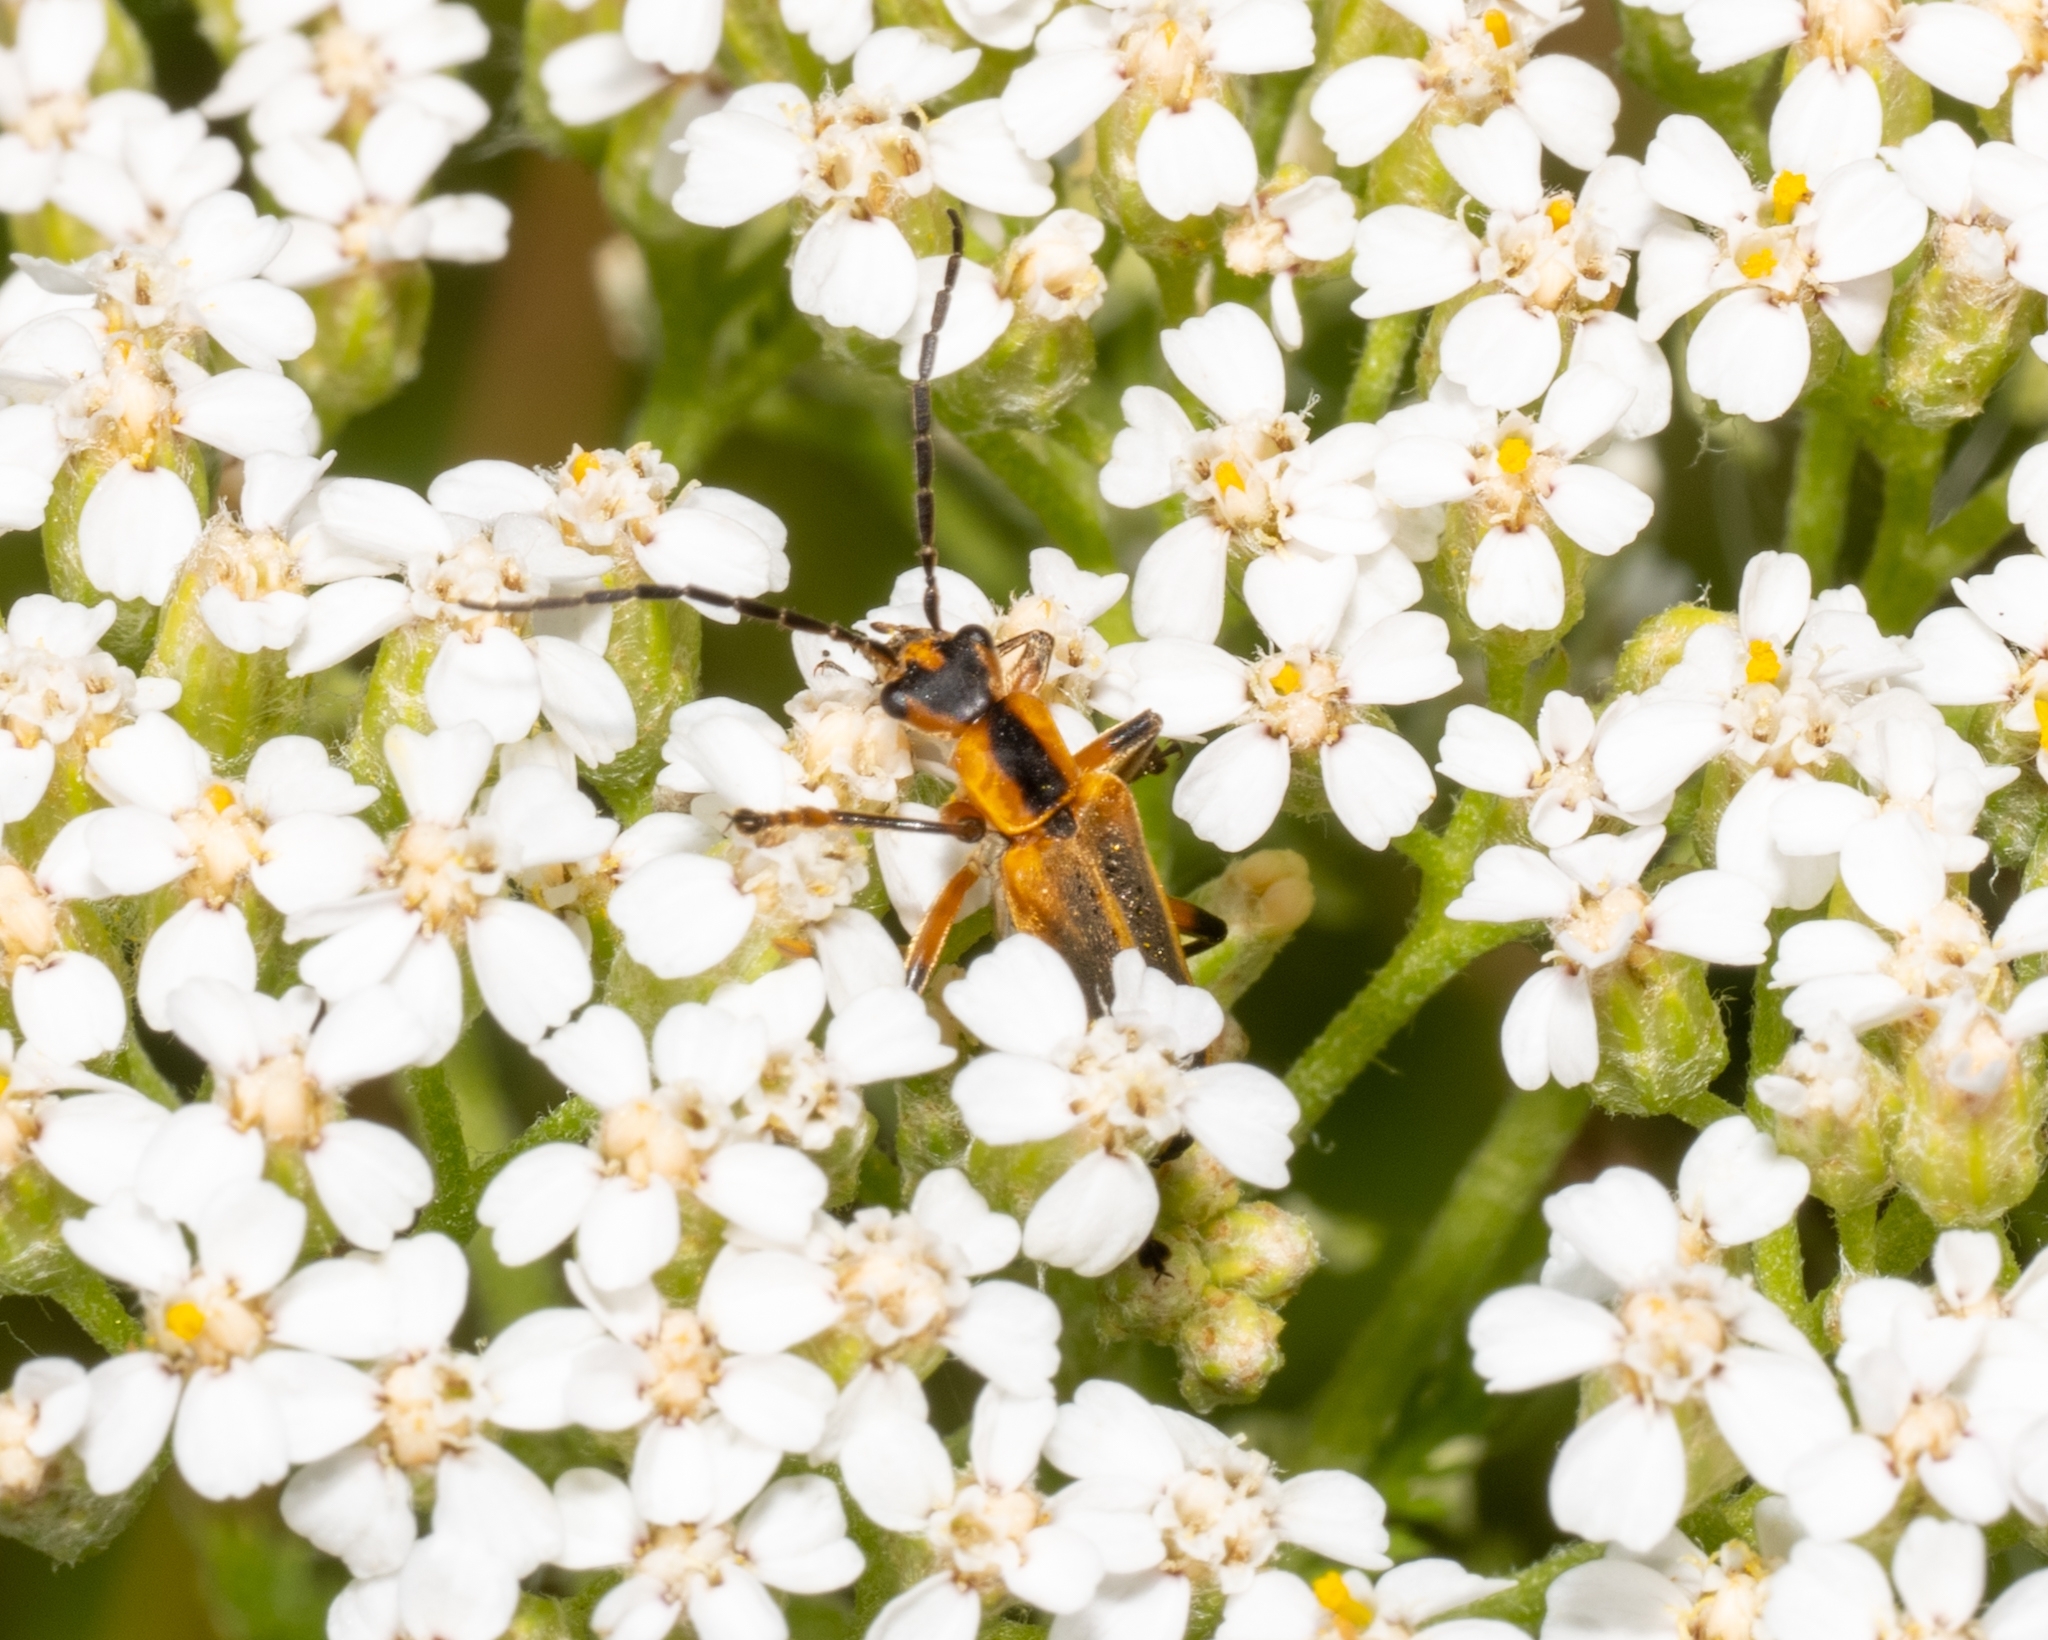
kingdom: Animalia
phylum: Arthropoda
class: Insecta
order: Coleoptera
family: Cantharidae
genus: Chauliognathus
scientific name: Chauliognathus marginatus
